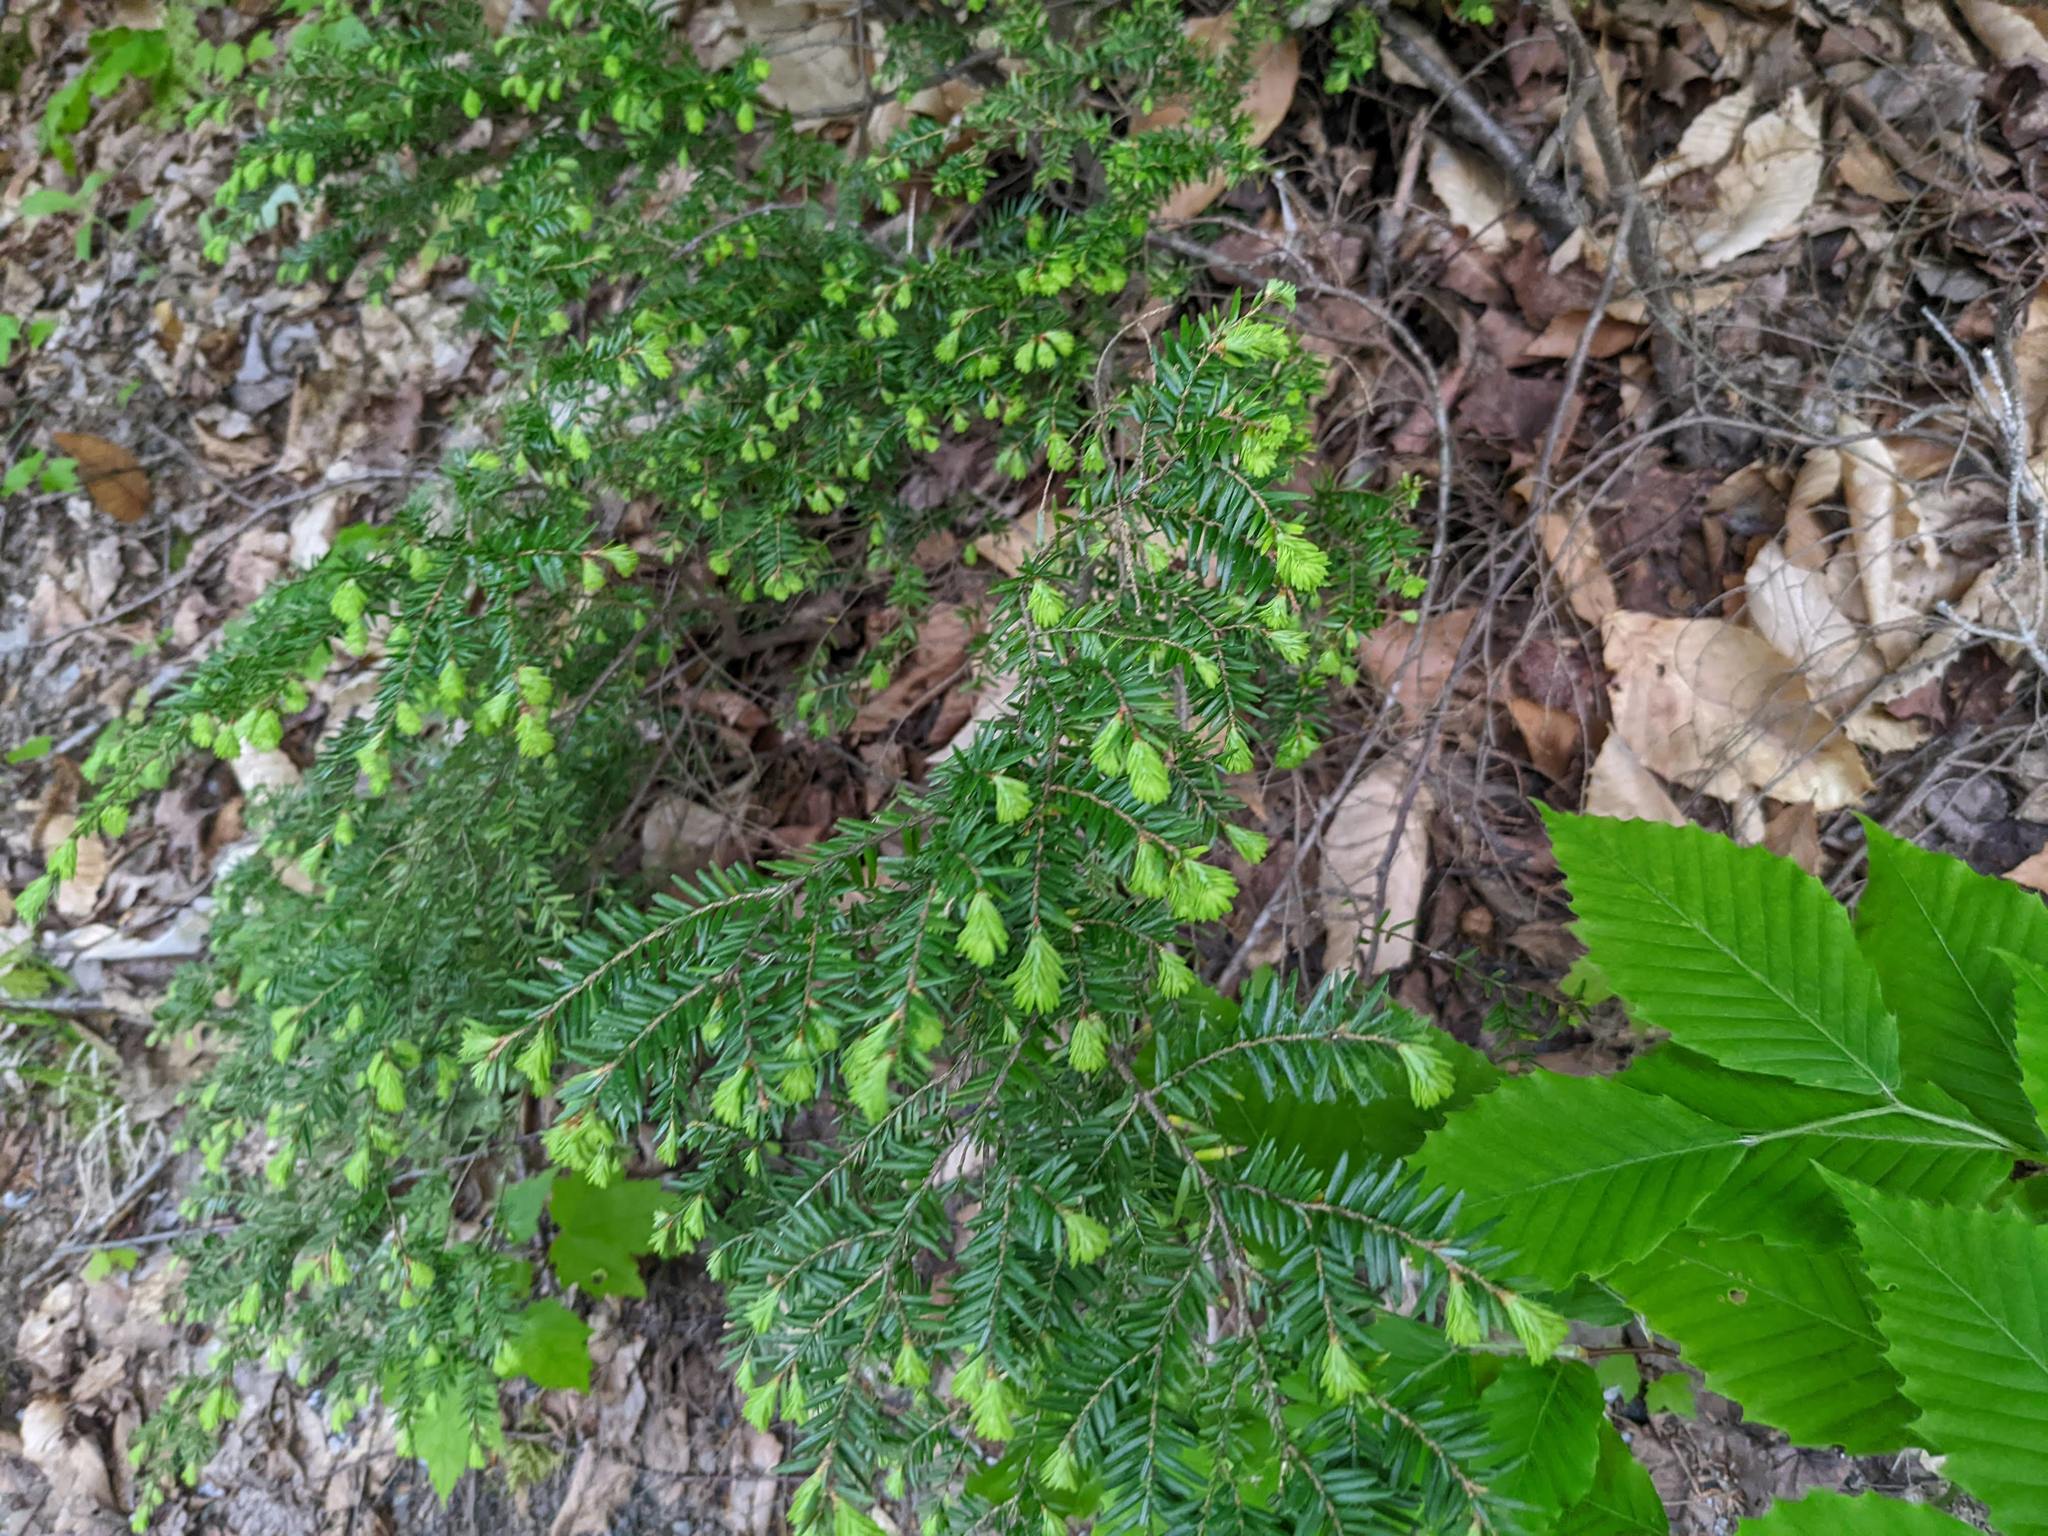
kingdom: Plantae
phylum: Tracheophyta
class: Pinopsida
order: Pinales
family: Pinaceae
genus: Tsuga
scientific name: Tsuga canadensis
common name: Eastern hemlock
